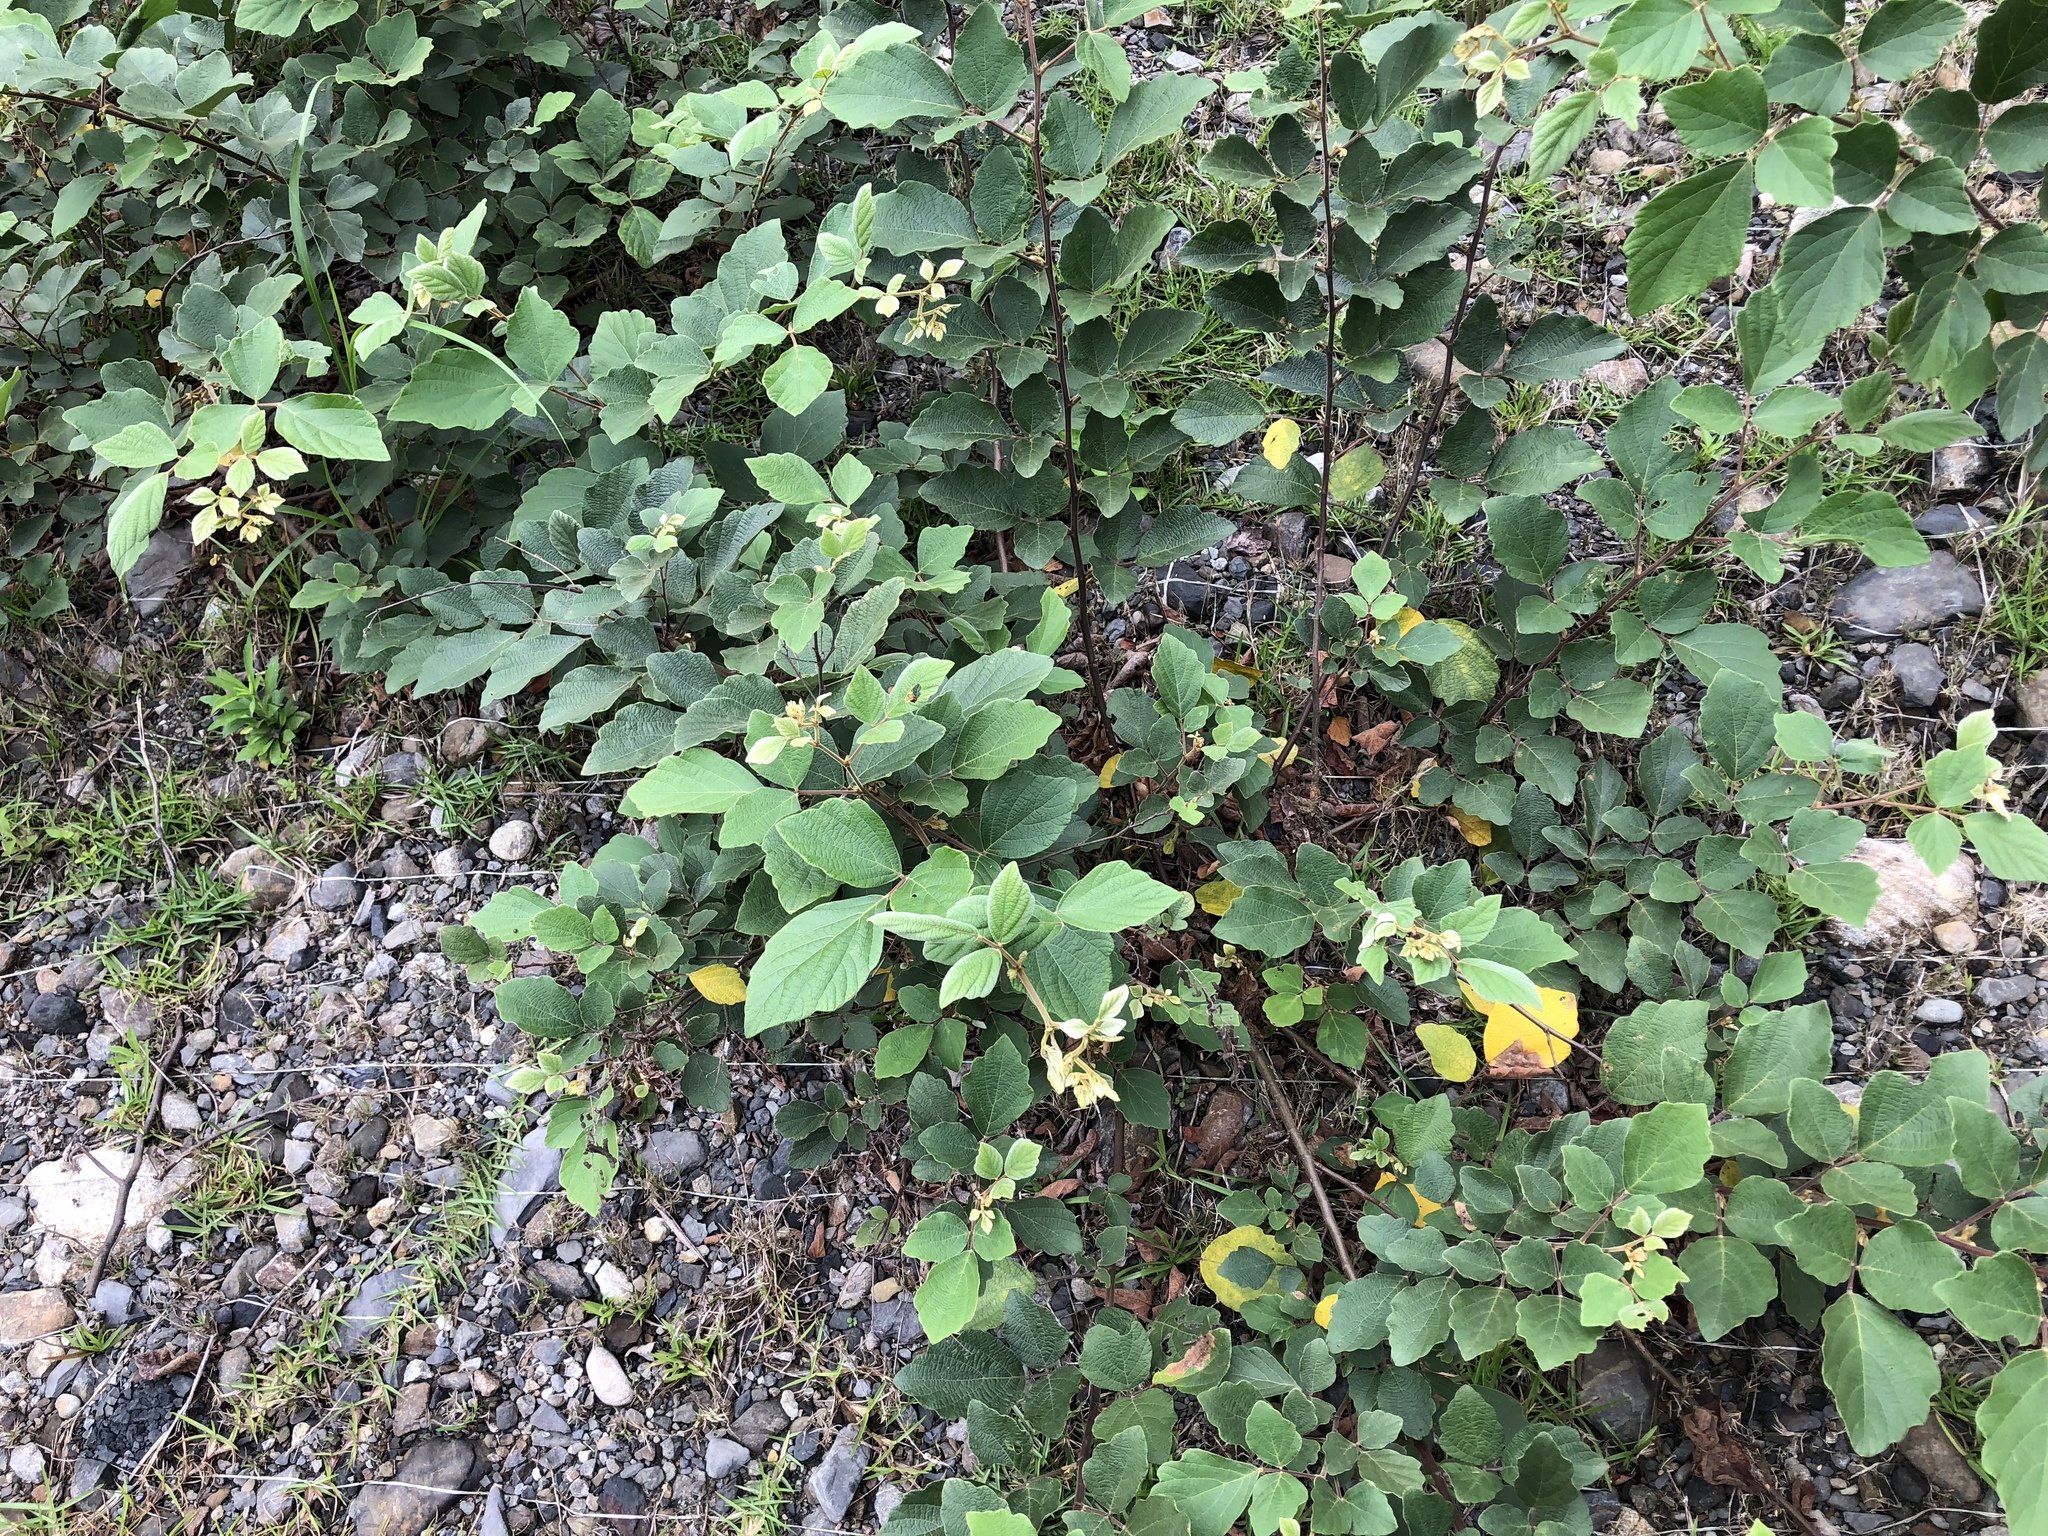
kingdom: Plantae
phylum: Tracheophyta
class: Magnoliopsida
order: Fabales
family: Fabaceae
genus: Puhuaea
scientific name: Puhuaea sequax
